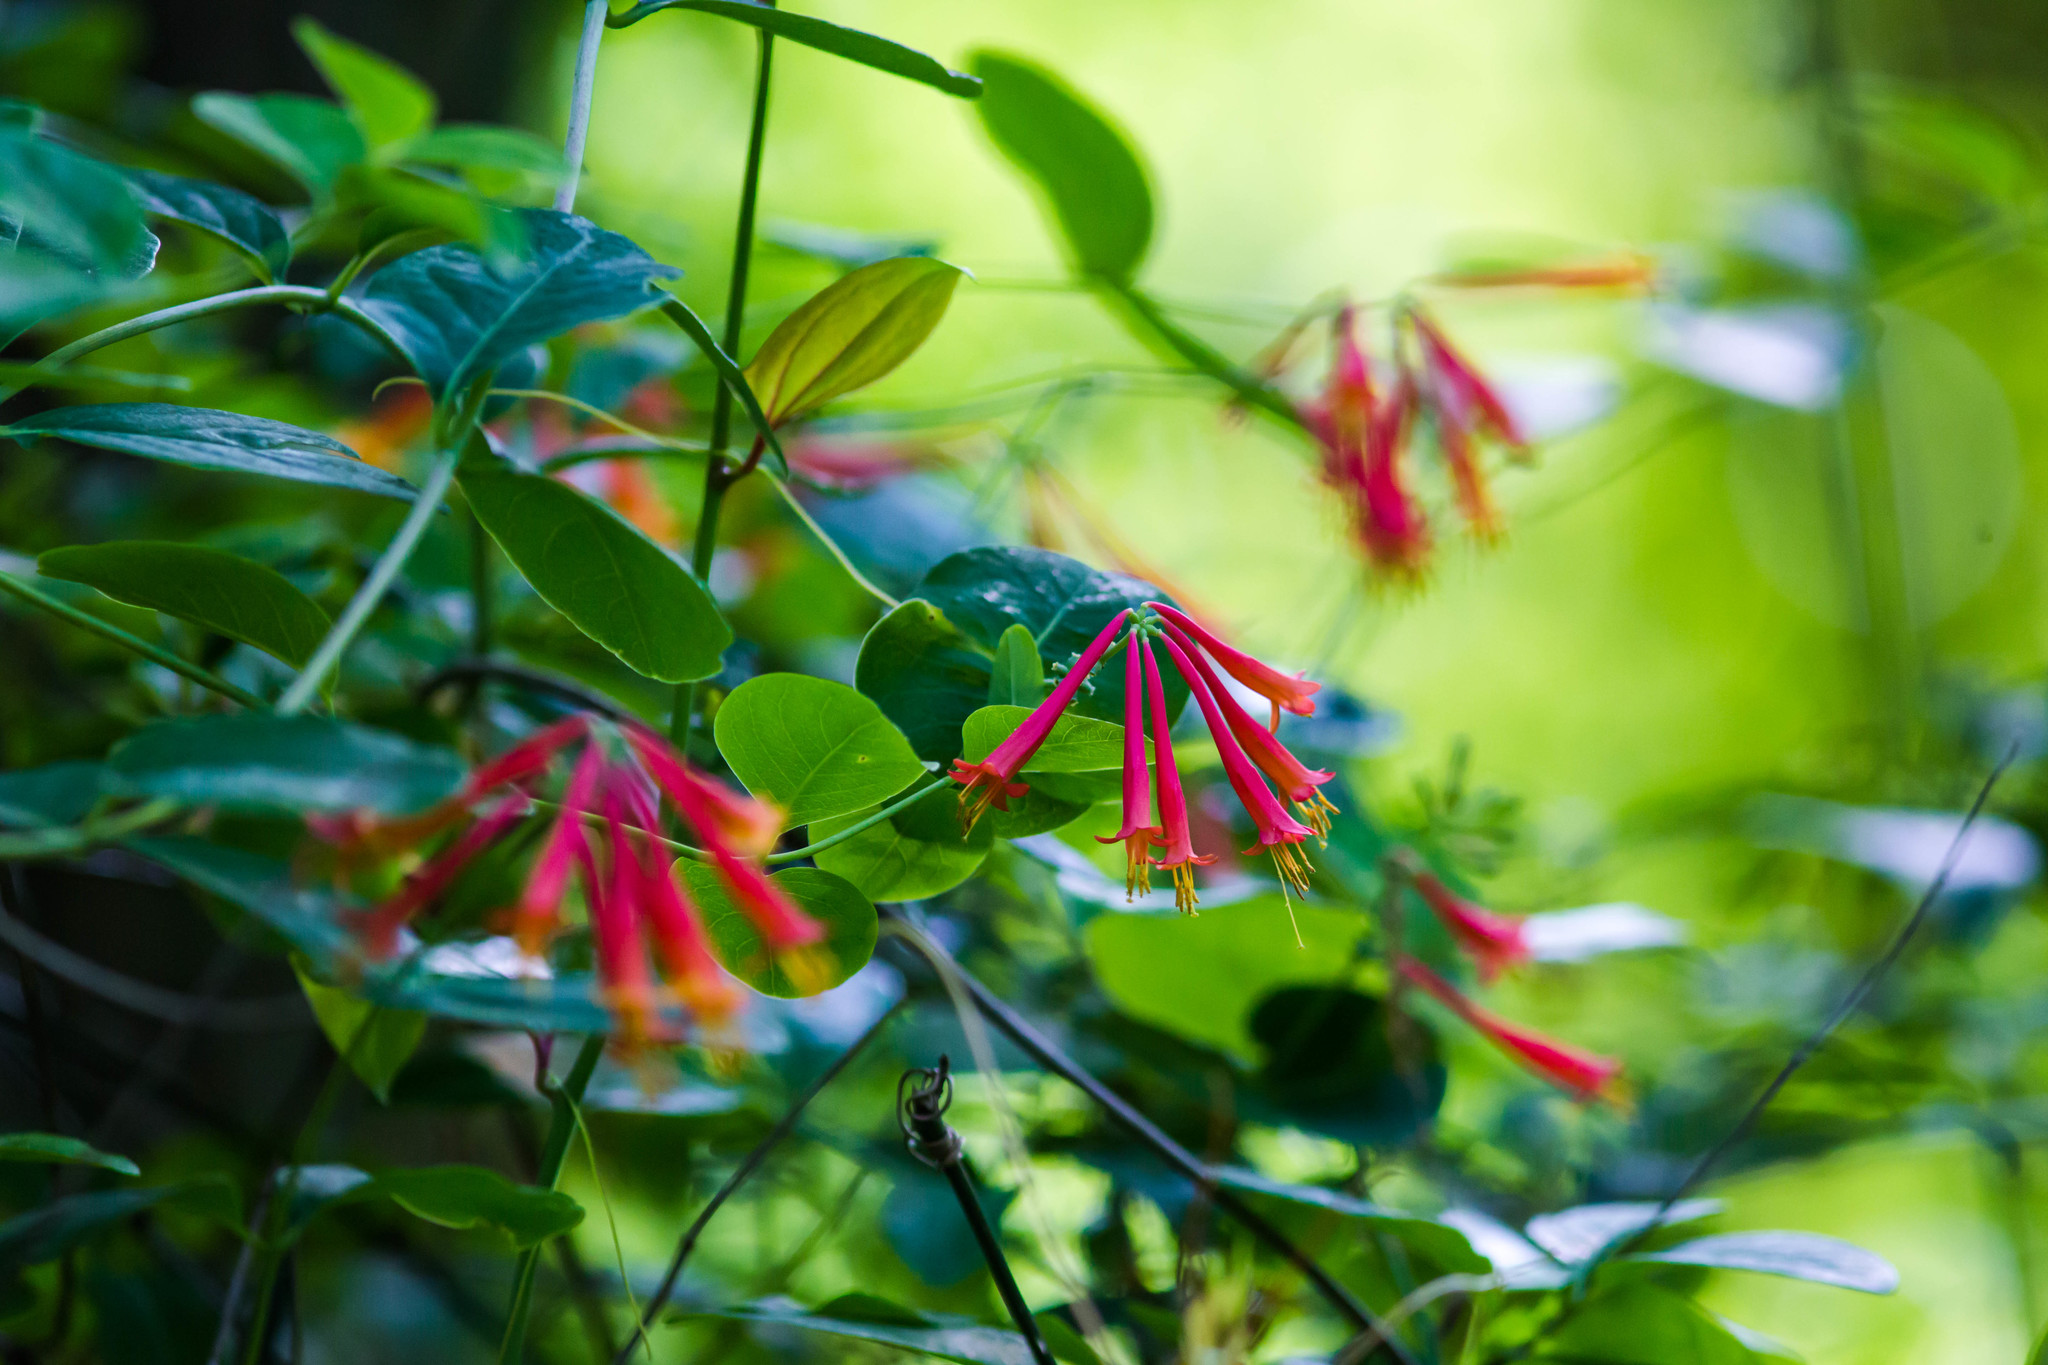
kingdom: Plantae
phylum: Tracheophyta
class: Magnoliopsida
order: Dipsacales
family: Caprifoliaceae
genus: Lonicera
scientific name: Lonicera sempervirens
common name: Coral honeysuckle
